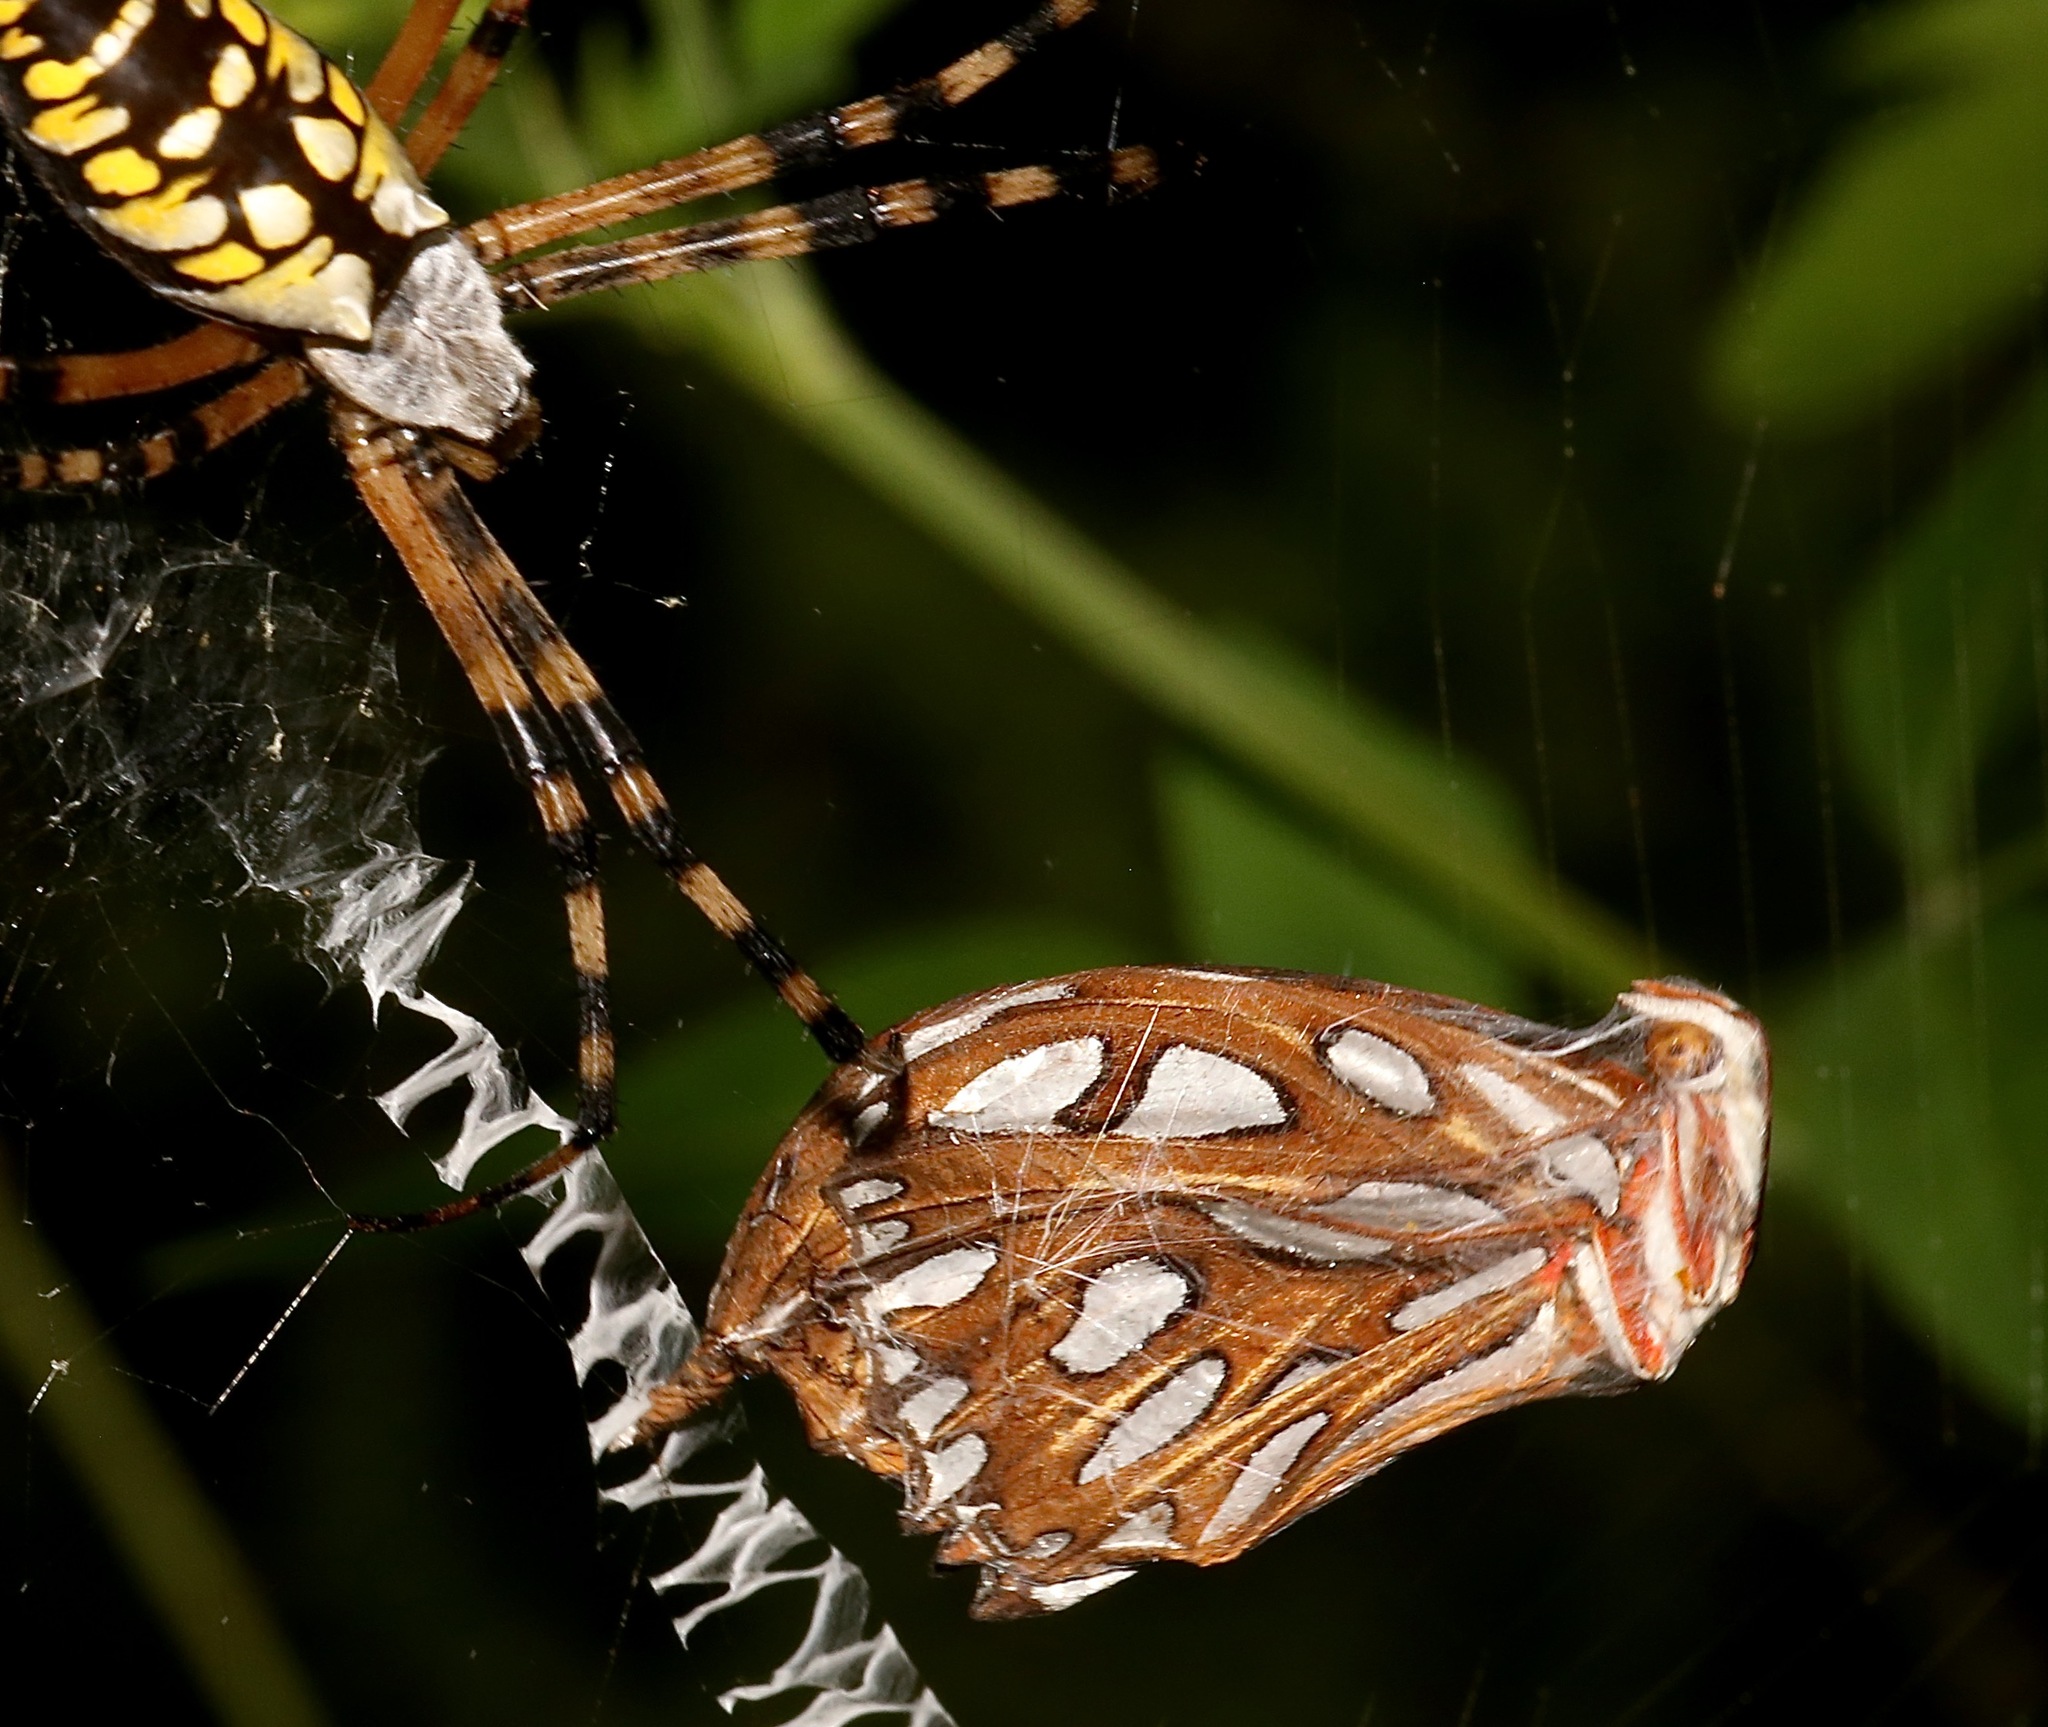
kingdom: Animalia
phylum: Arthropoda
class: Insecta
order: Lepidoptera
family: Nymphalidae
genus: Dione
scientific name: Dione vanillae
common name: Gulf fritillary
